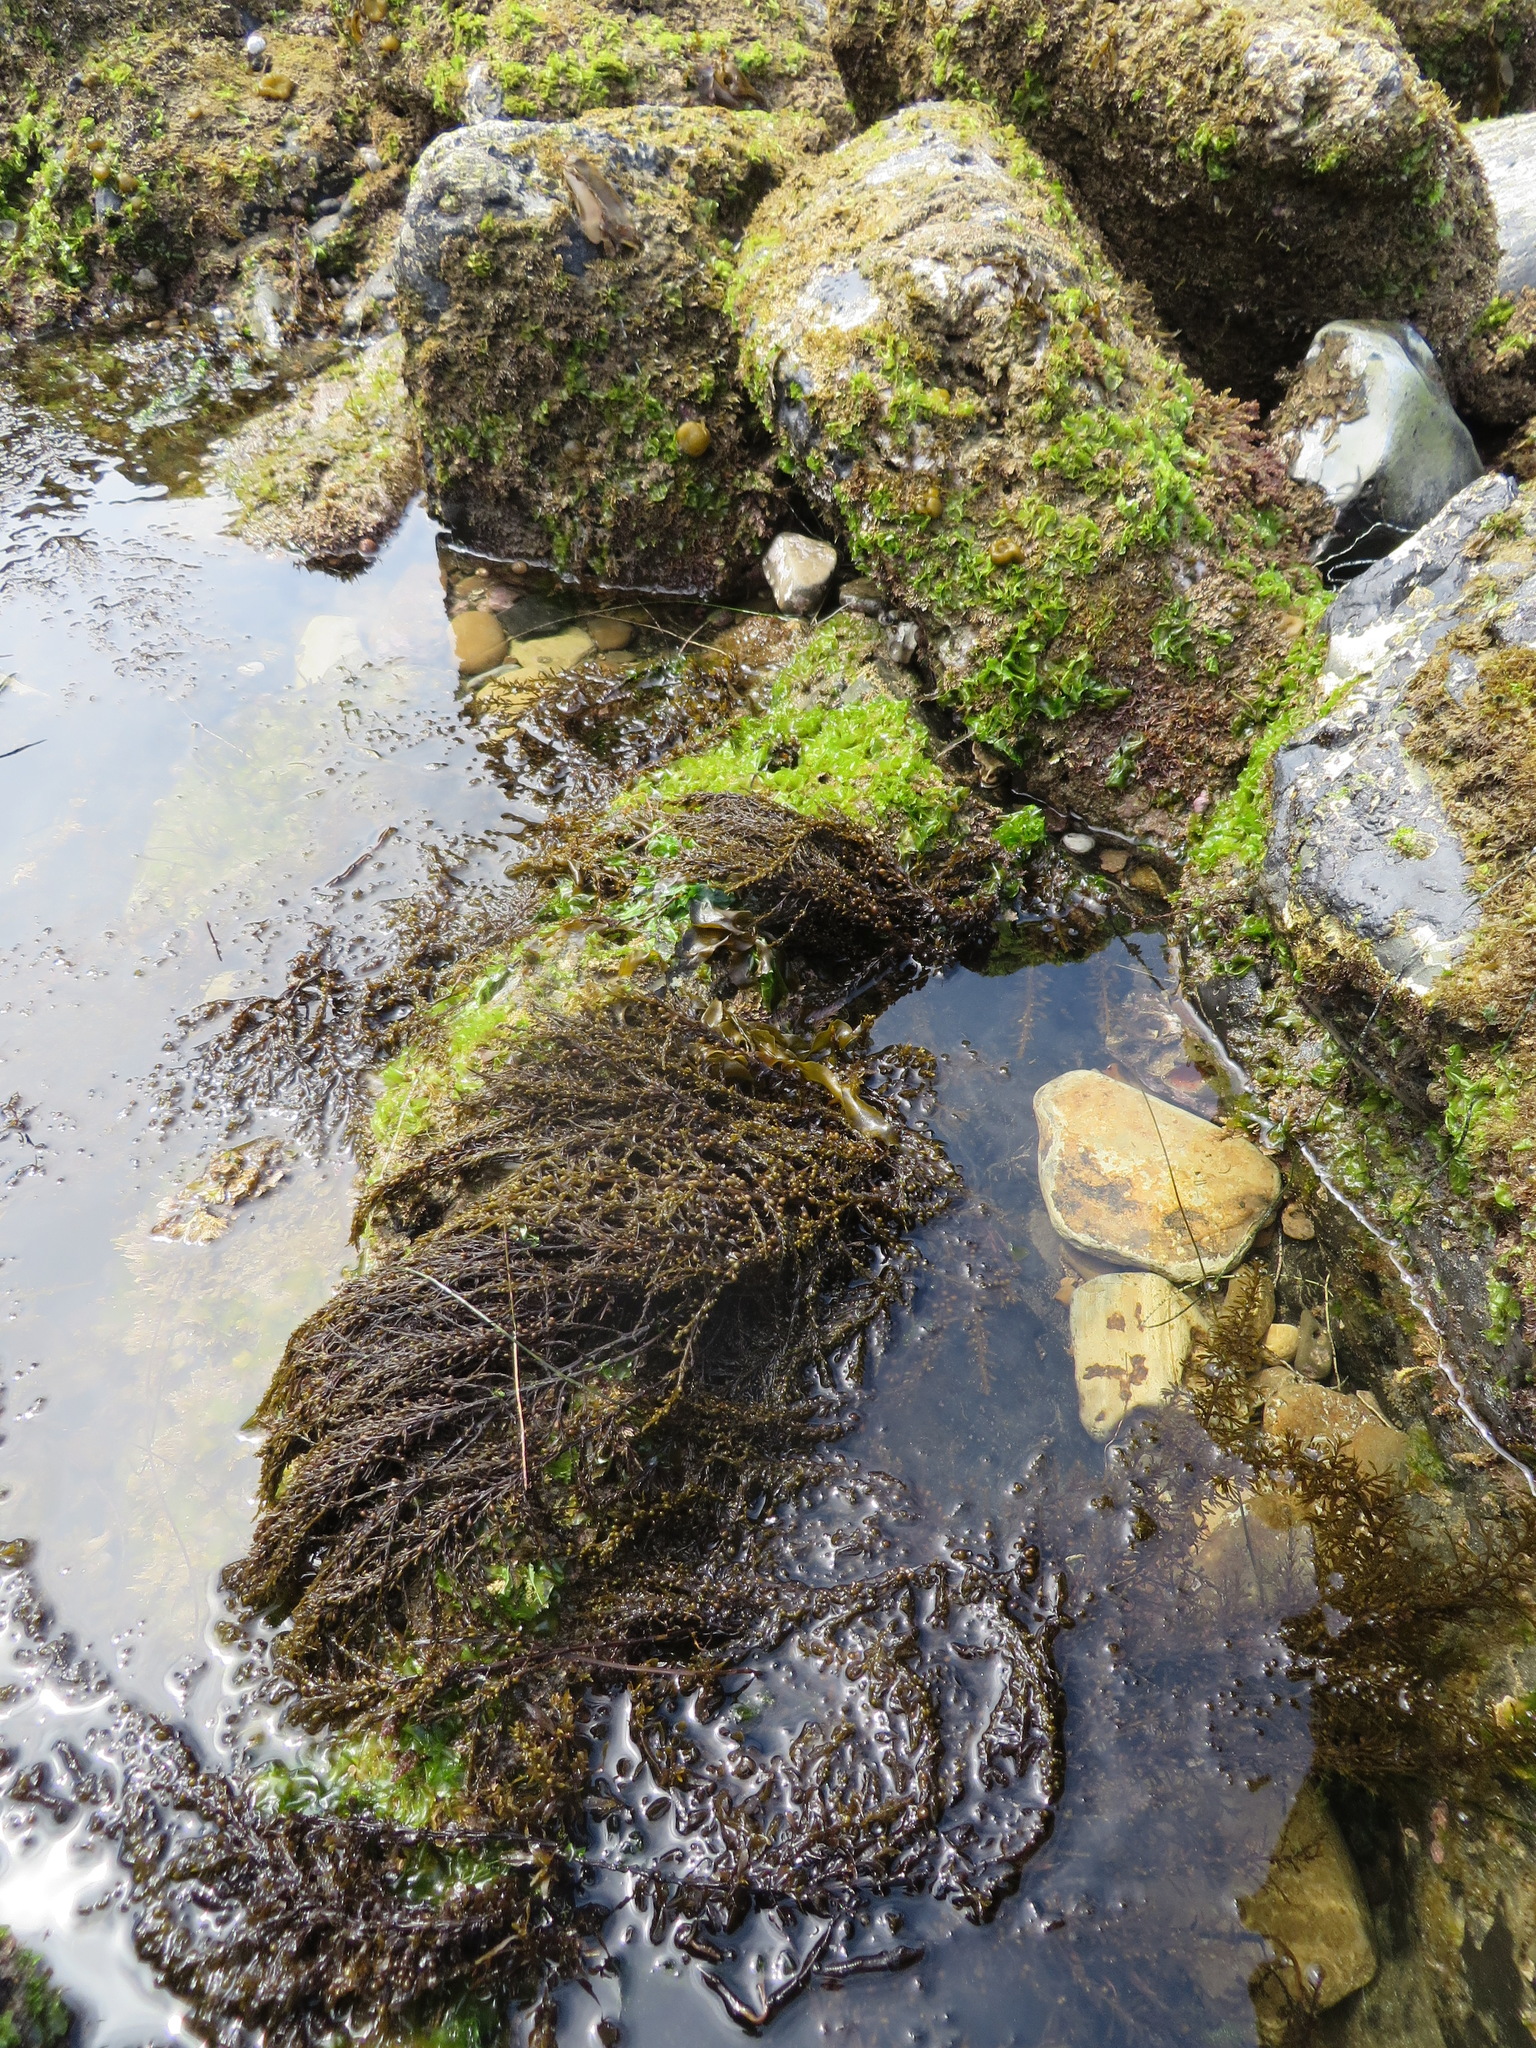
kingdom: Chromista
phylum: Ochrophyta
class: Phaeophyceae
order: Fucales
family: Sargassaceae
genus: Sargassum
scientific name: Sargassum muticum
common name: Japweed
